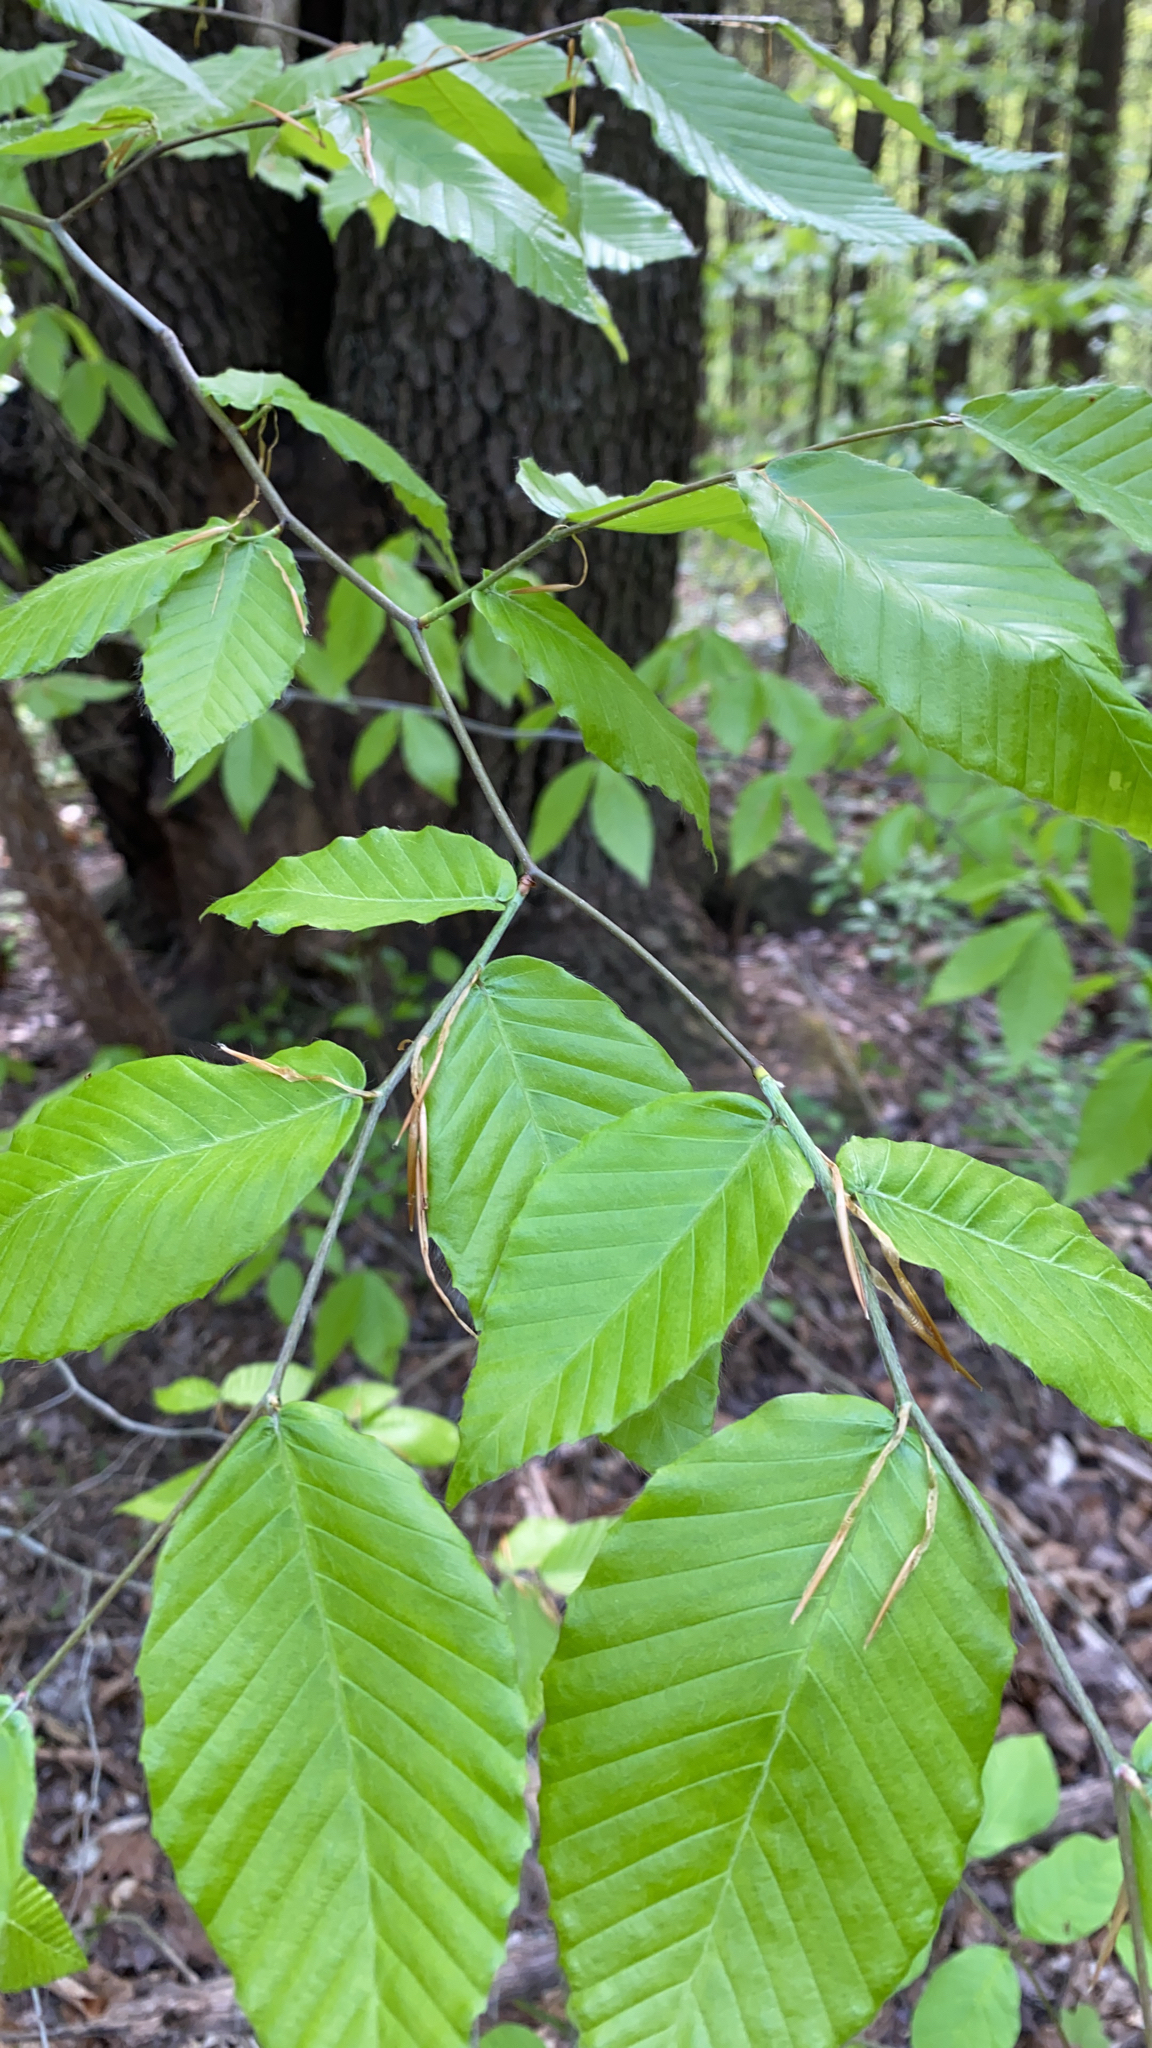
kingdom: Plantae
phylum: Tracheophyta
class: Magnoliopsida
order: Fagales
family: Fagaceae
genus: Fagus
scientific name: Fagus grandifolia
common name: American beech
